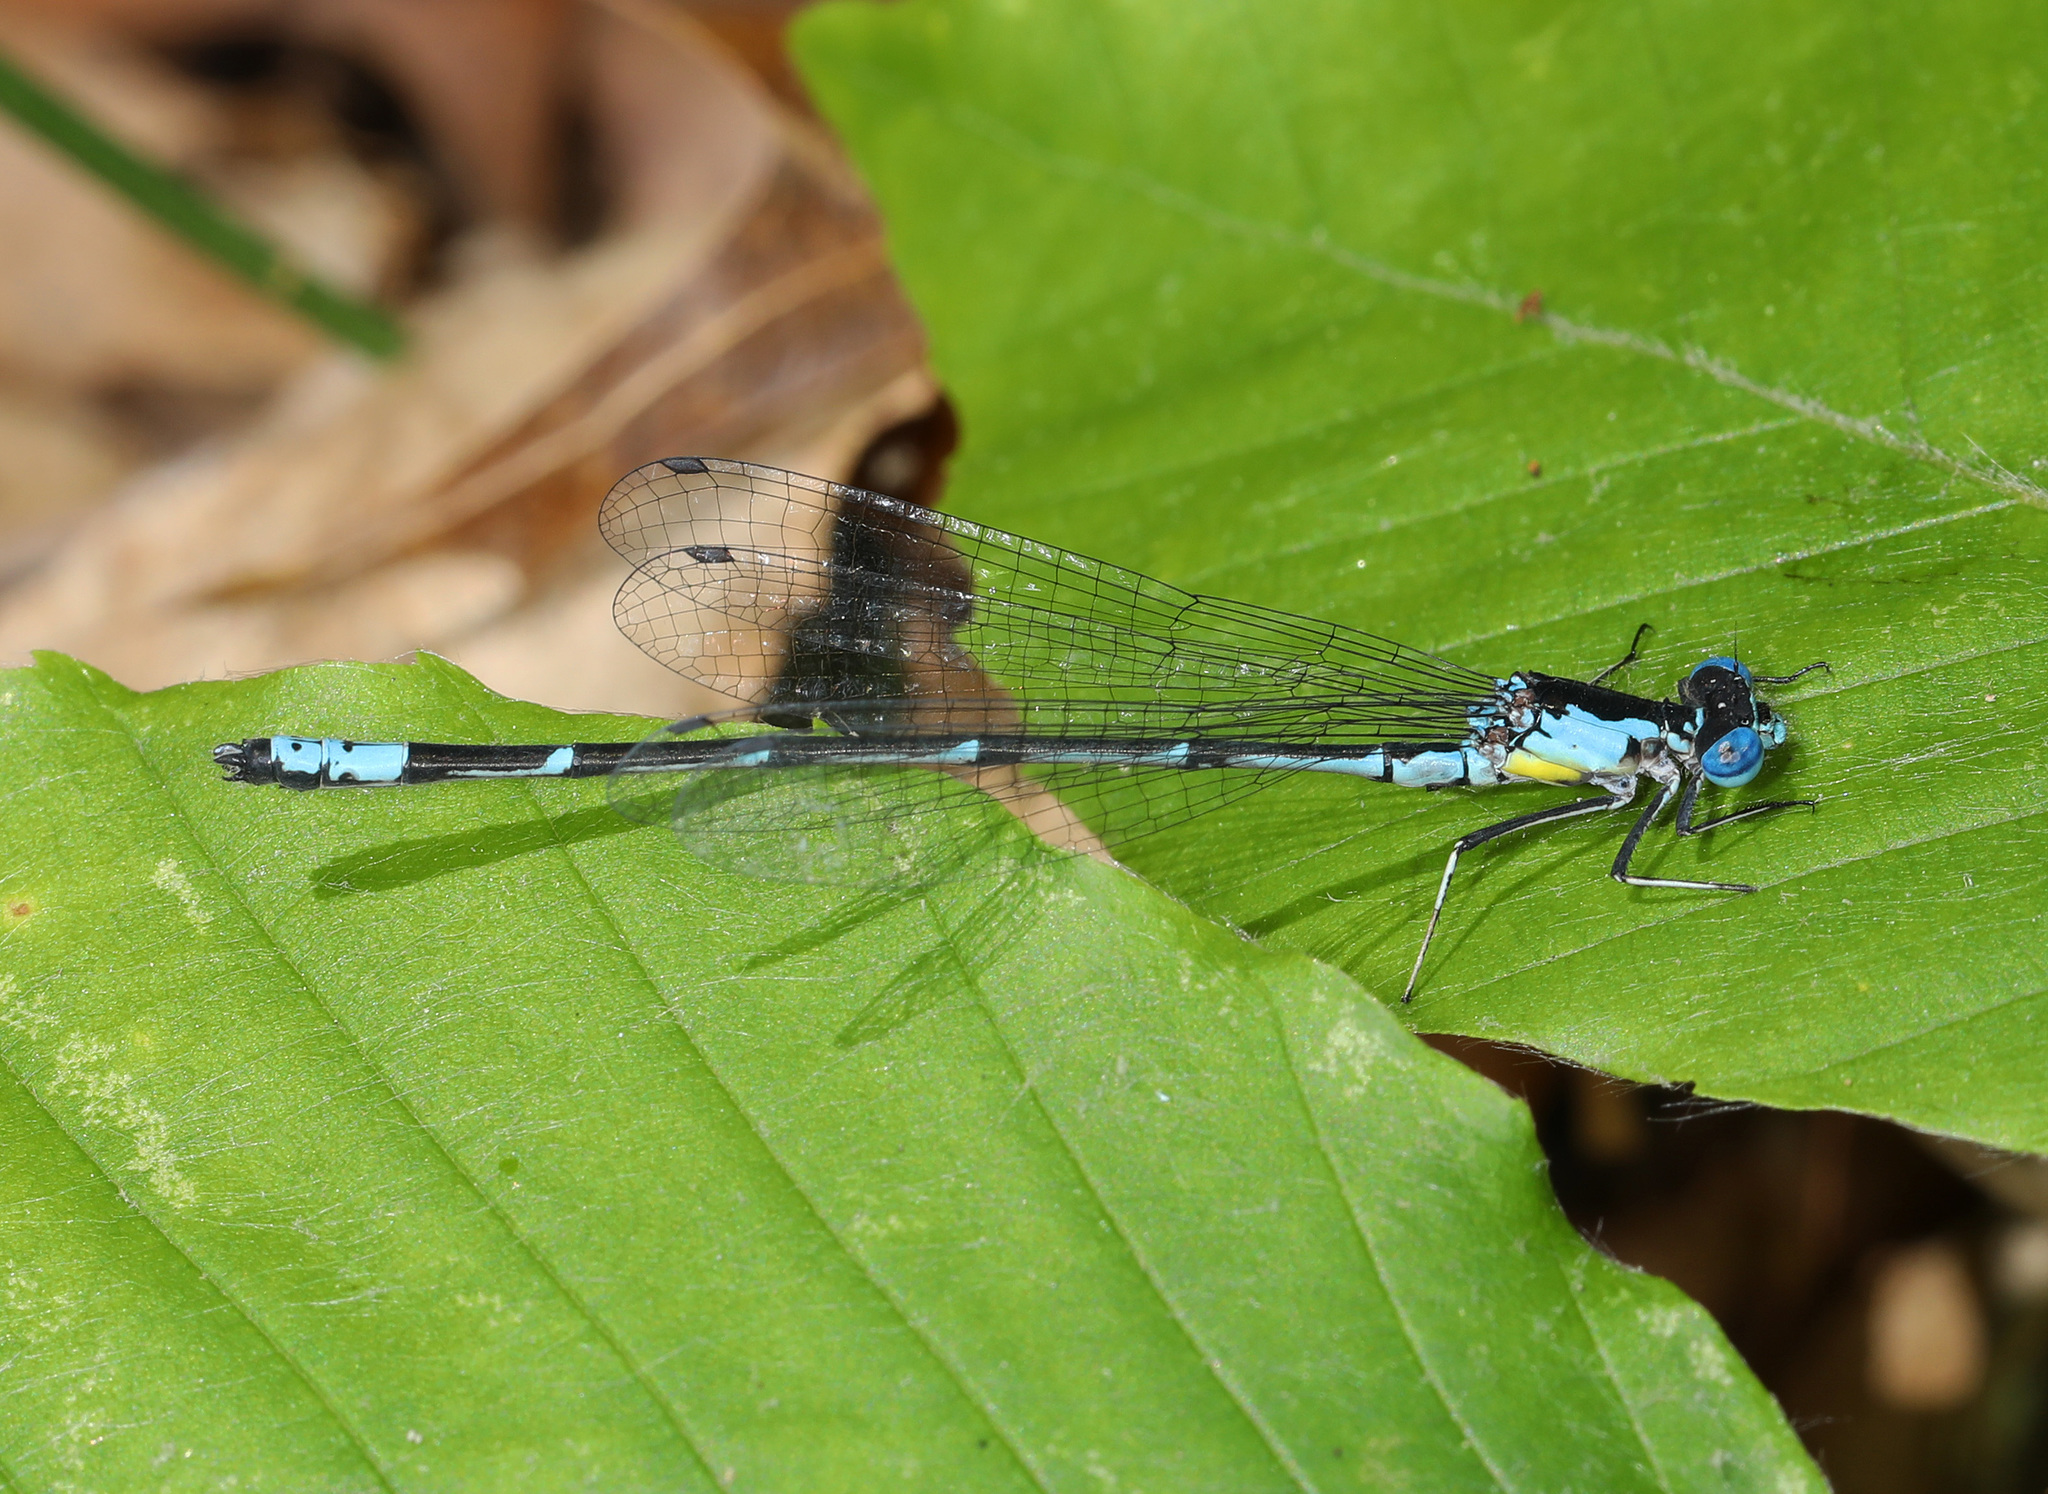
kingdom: Animalia
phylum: Arthropoda
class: Insecta
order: Odonata
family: Coenagrionidae
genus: Chromagrion
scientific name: Chromagrion conditum
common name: Aurora damsel
